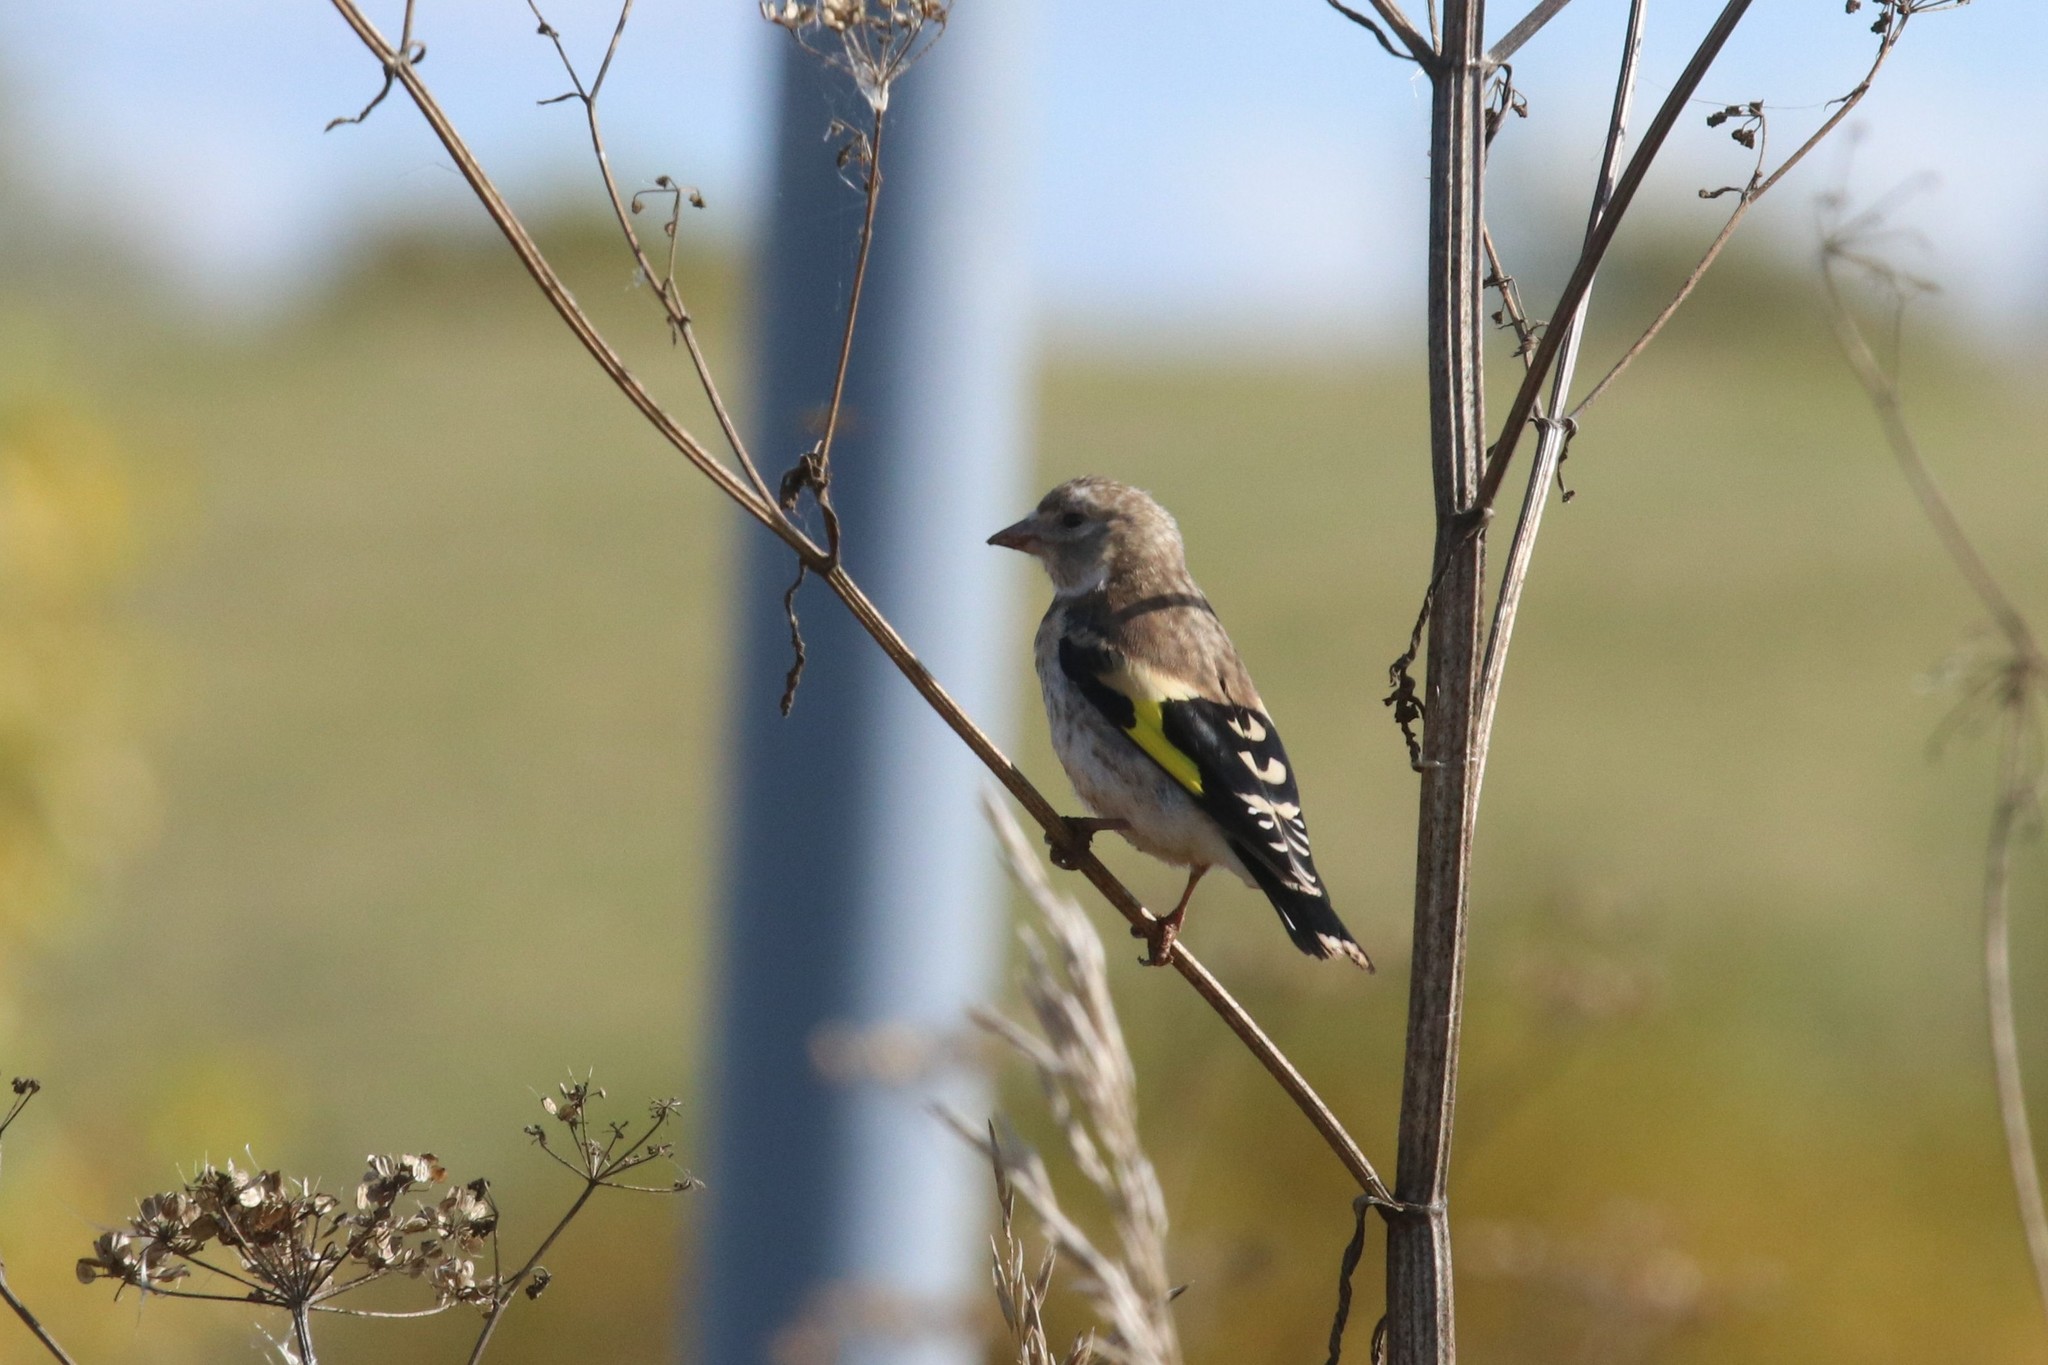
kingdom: Animalia
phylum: Chordata
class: Aves
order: Passeriformes
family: Fringillidae
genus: Carduelis
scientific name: Carduelis carduelis
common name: European goldfinch
